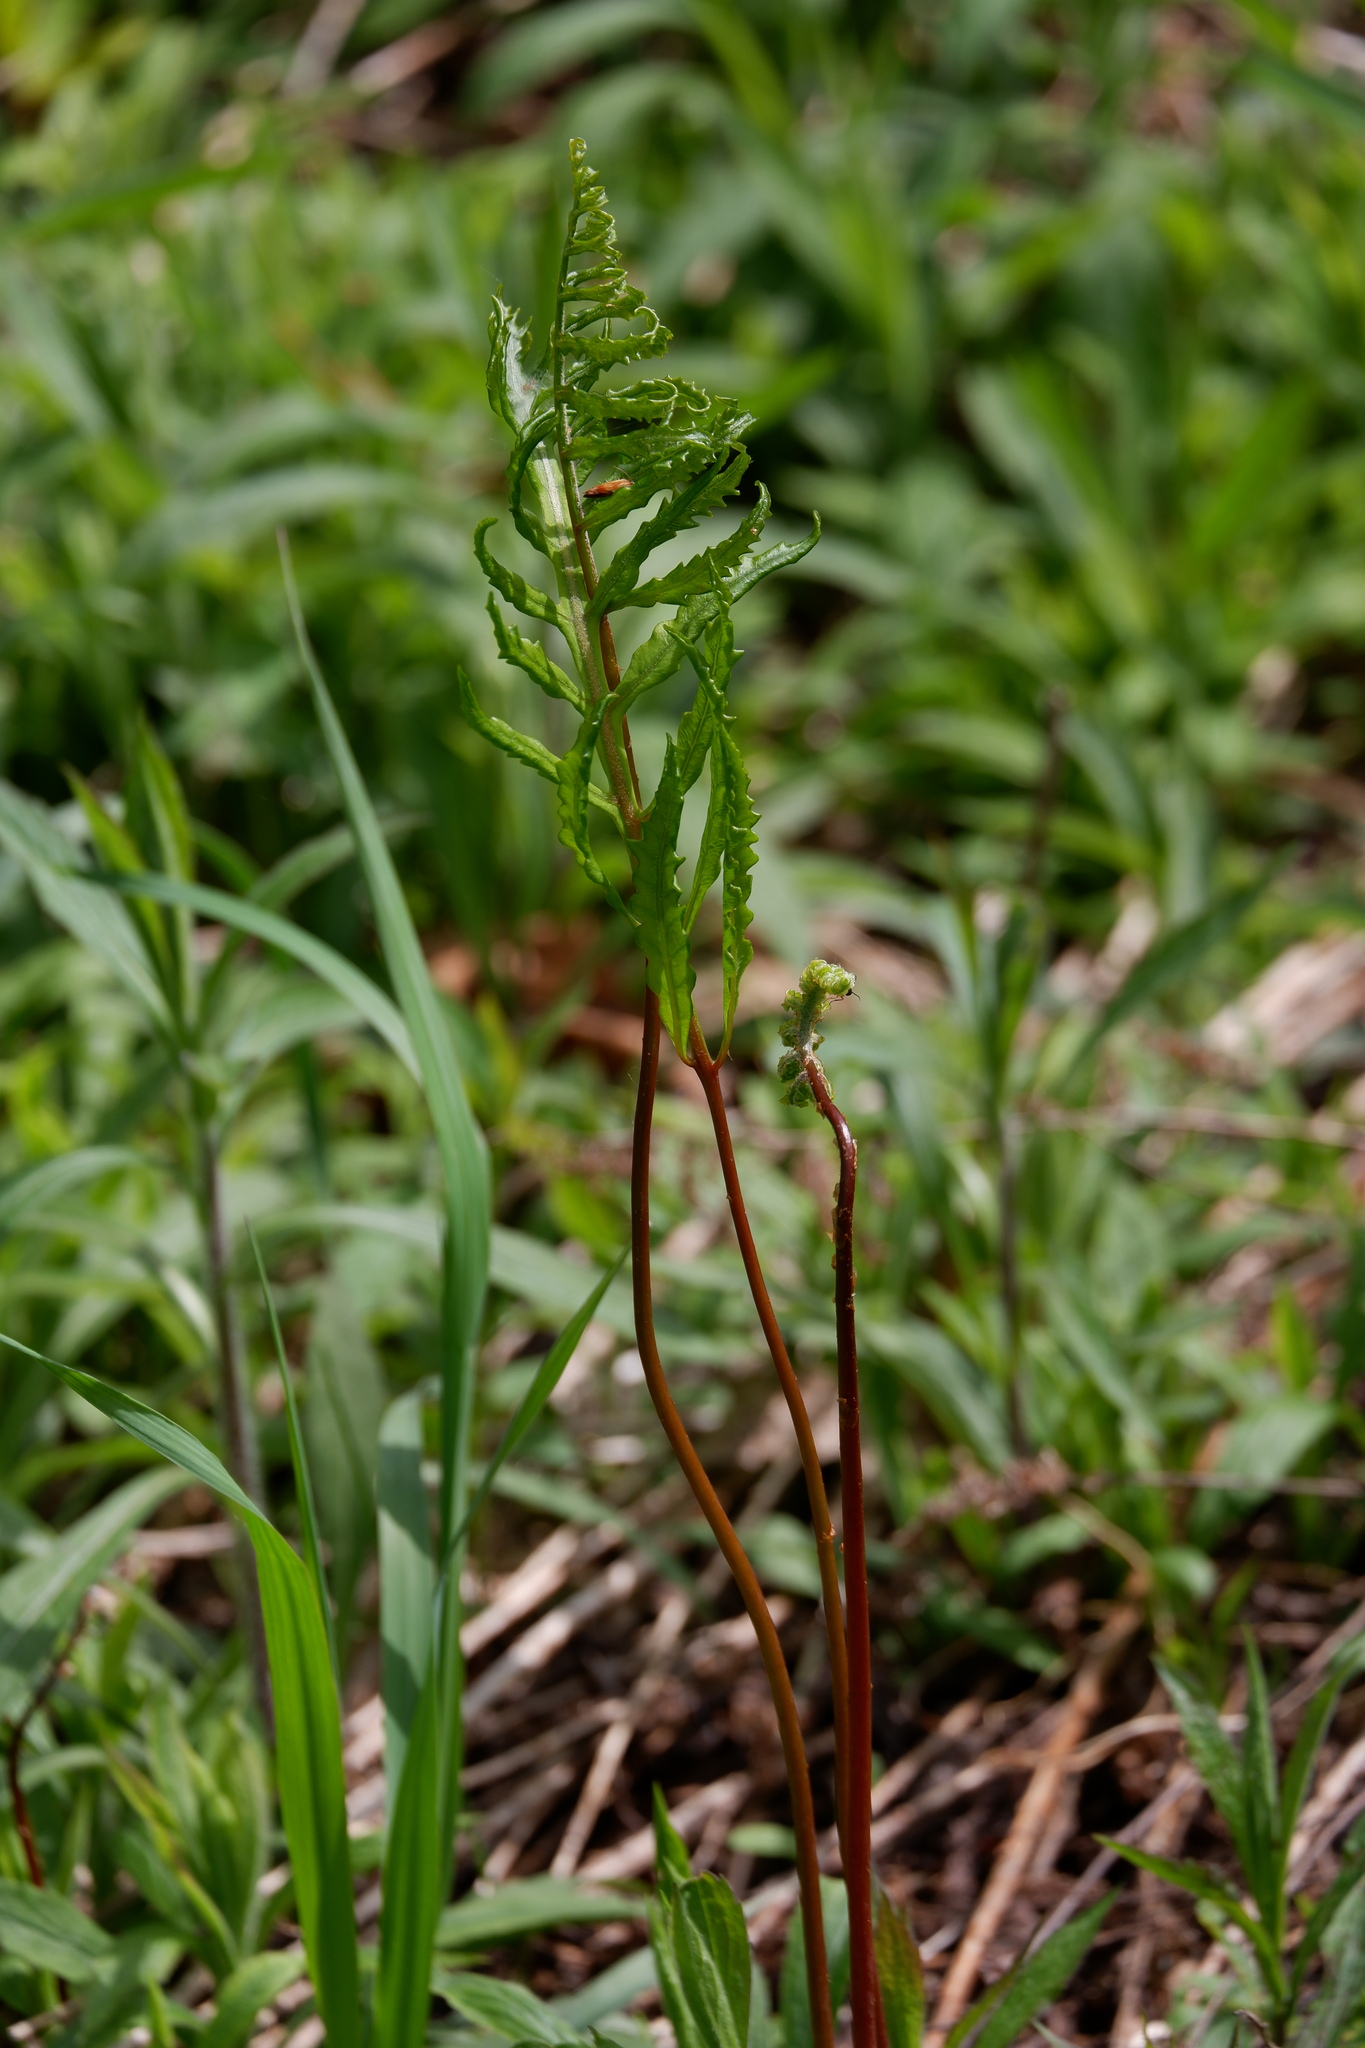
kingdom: Plantae
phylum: Tracheophyta
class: Polypodiopsida
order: Polypodiales
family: Onocleaceae
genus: Onoclea
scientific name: Onoclea sensibilis
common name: Sensitive fern
